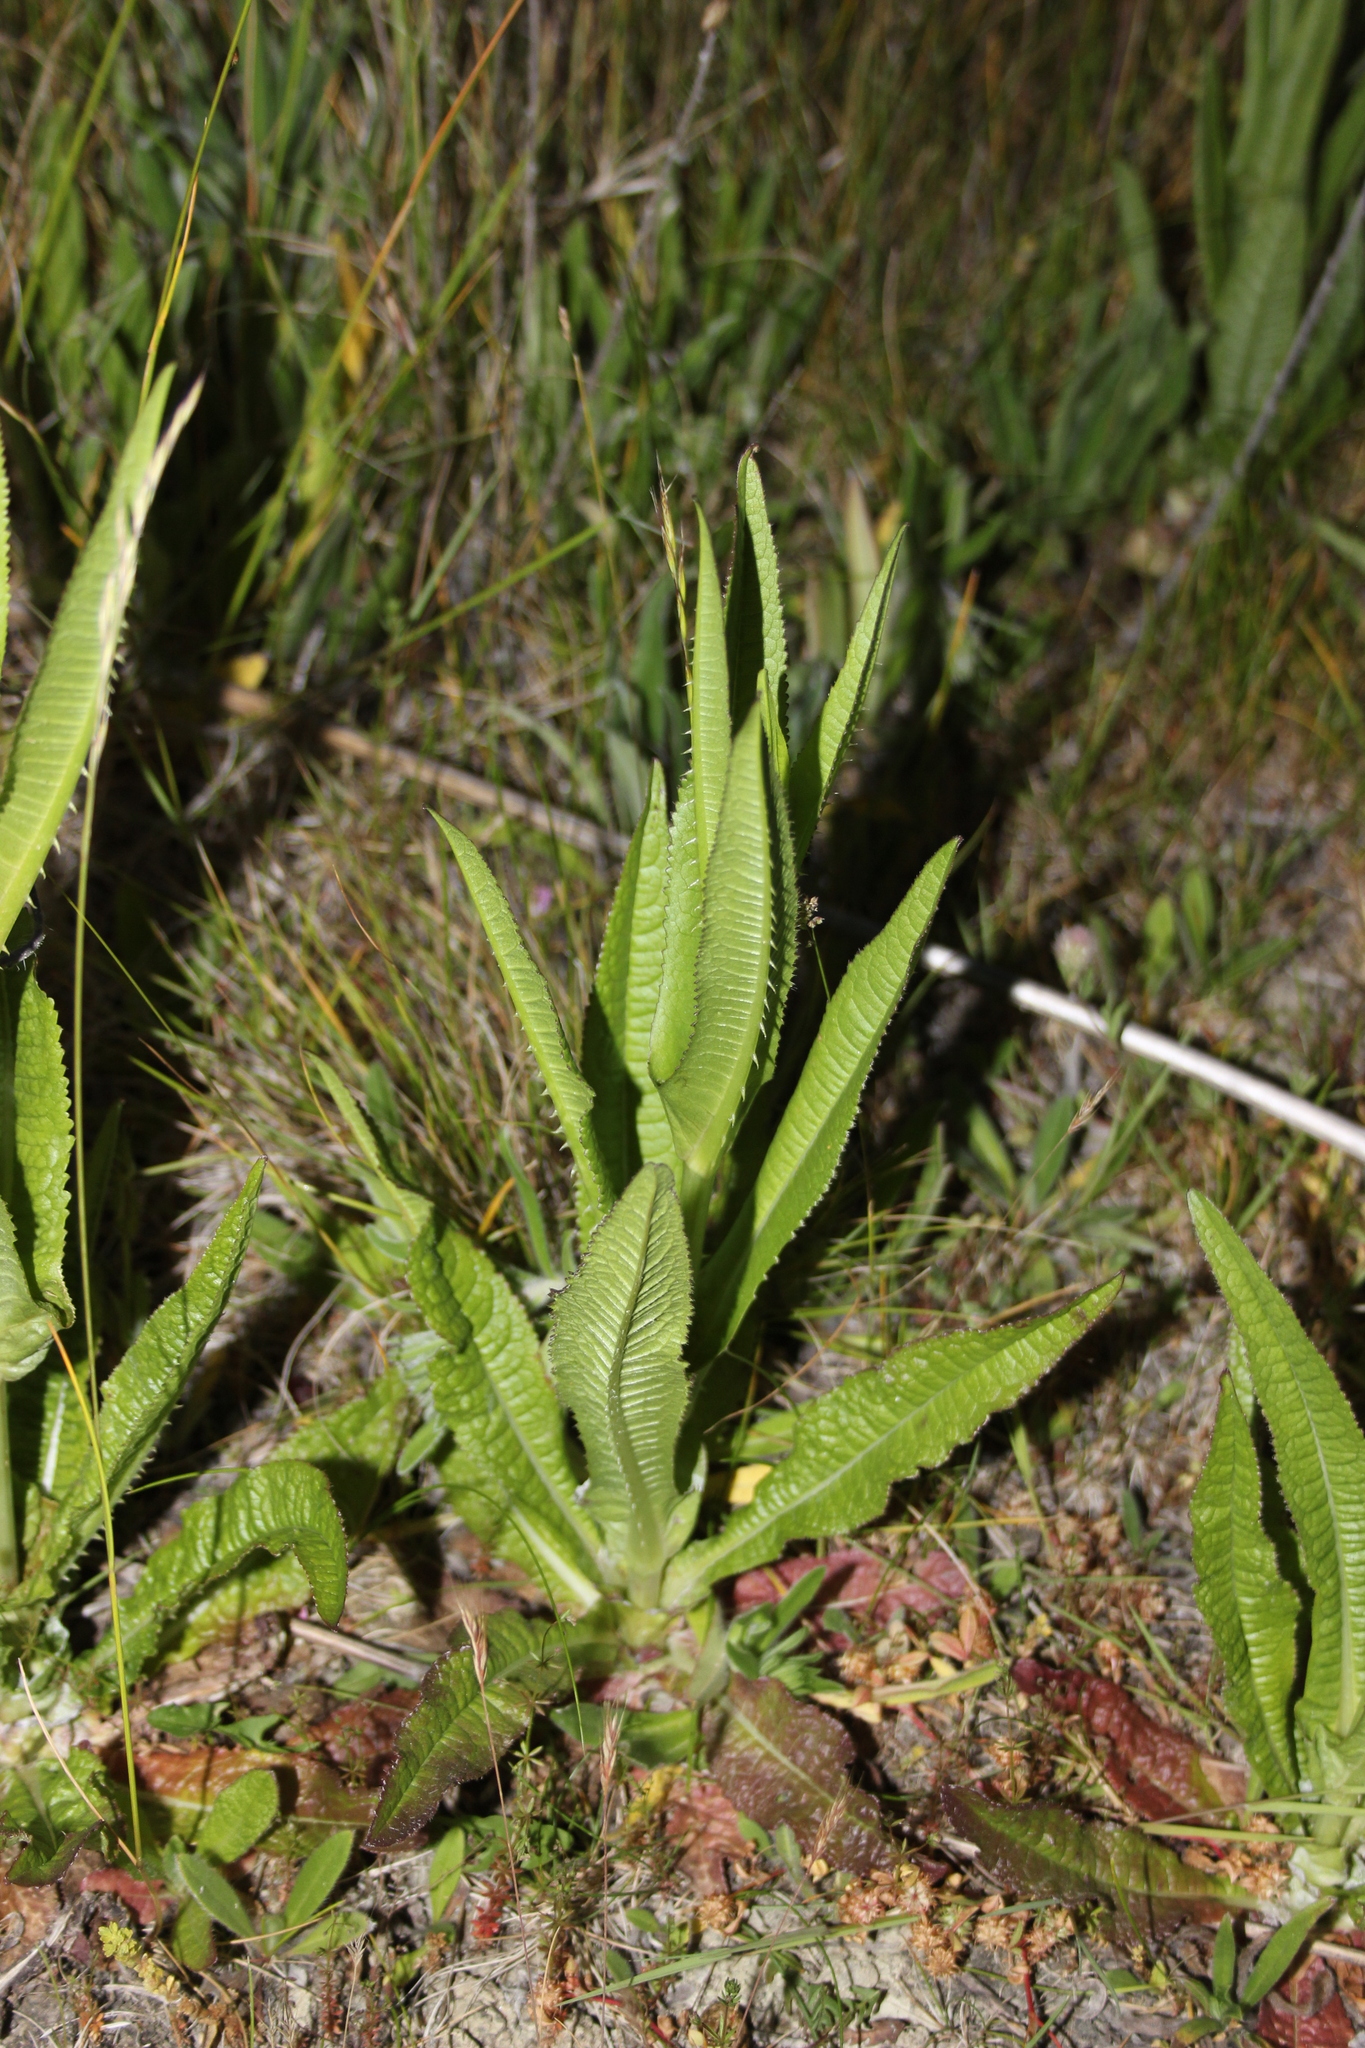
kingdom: Plantae
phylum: Tracheophyta
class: Magnoliopsida
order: Dipsacales
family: Caprifoliaceae
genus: Dipsacus
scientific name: Dipsacus fullonum
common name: Teasel
